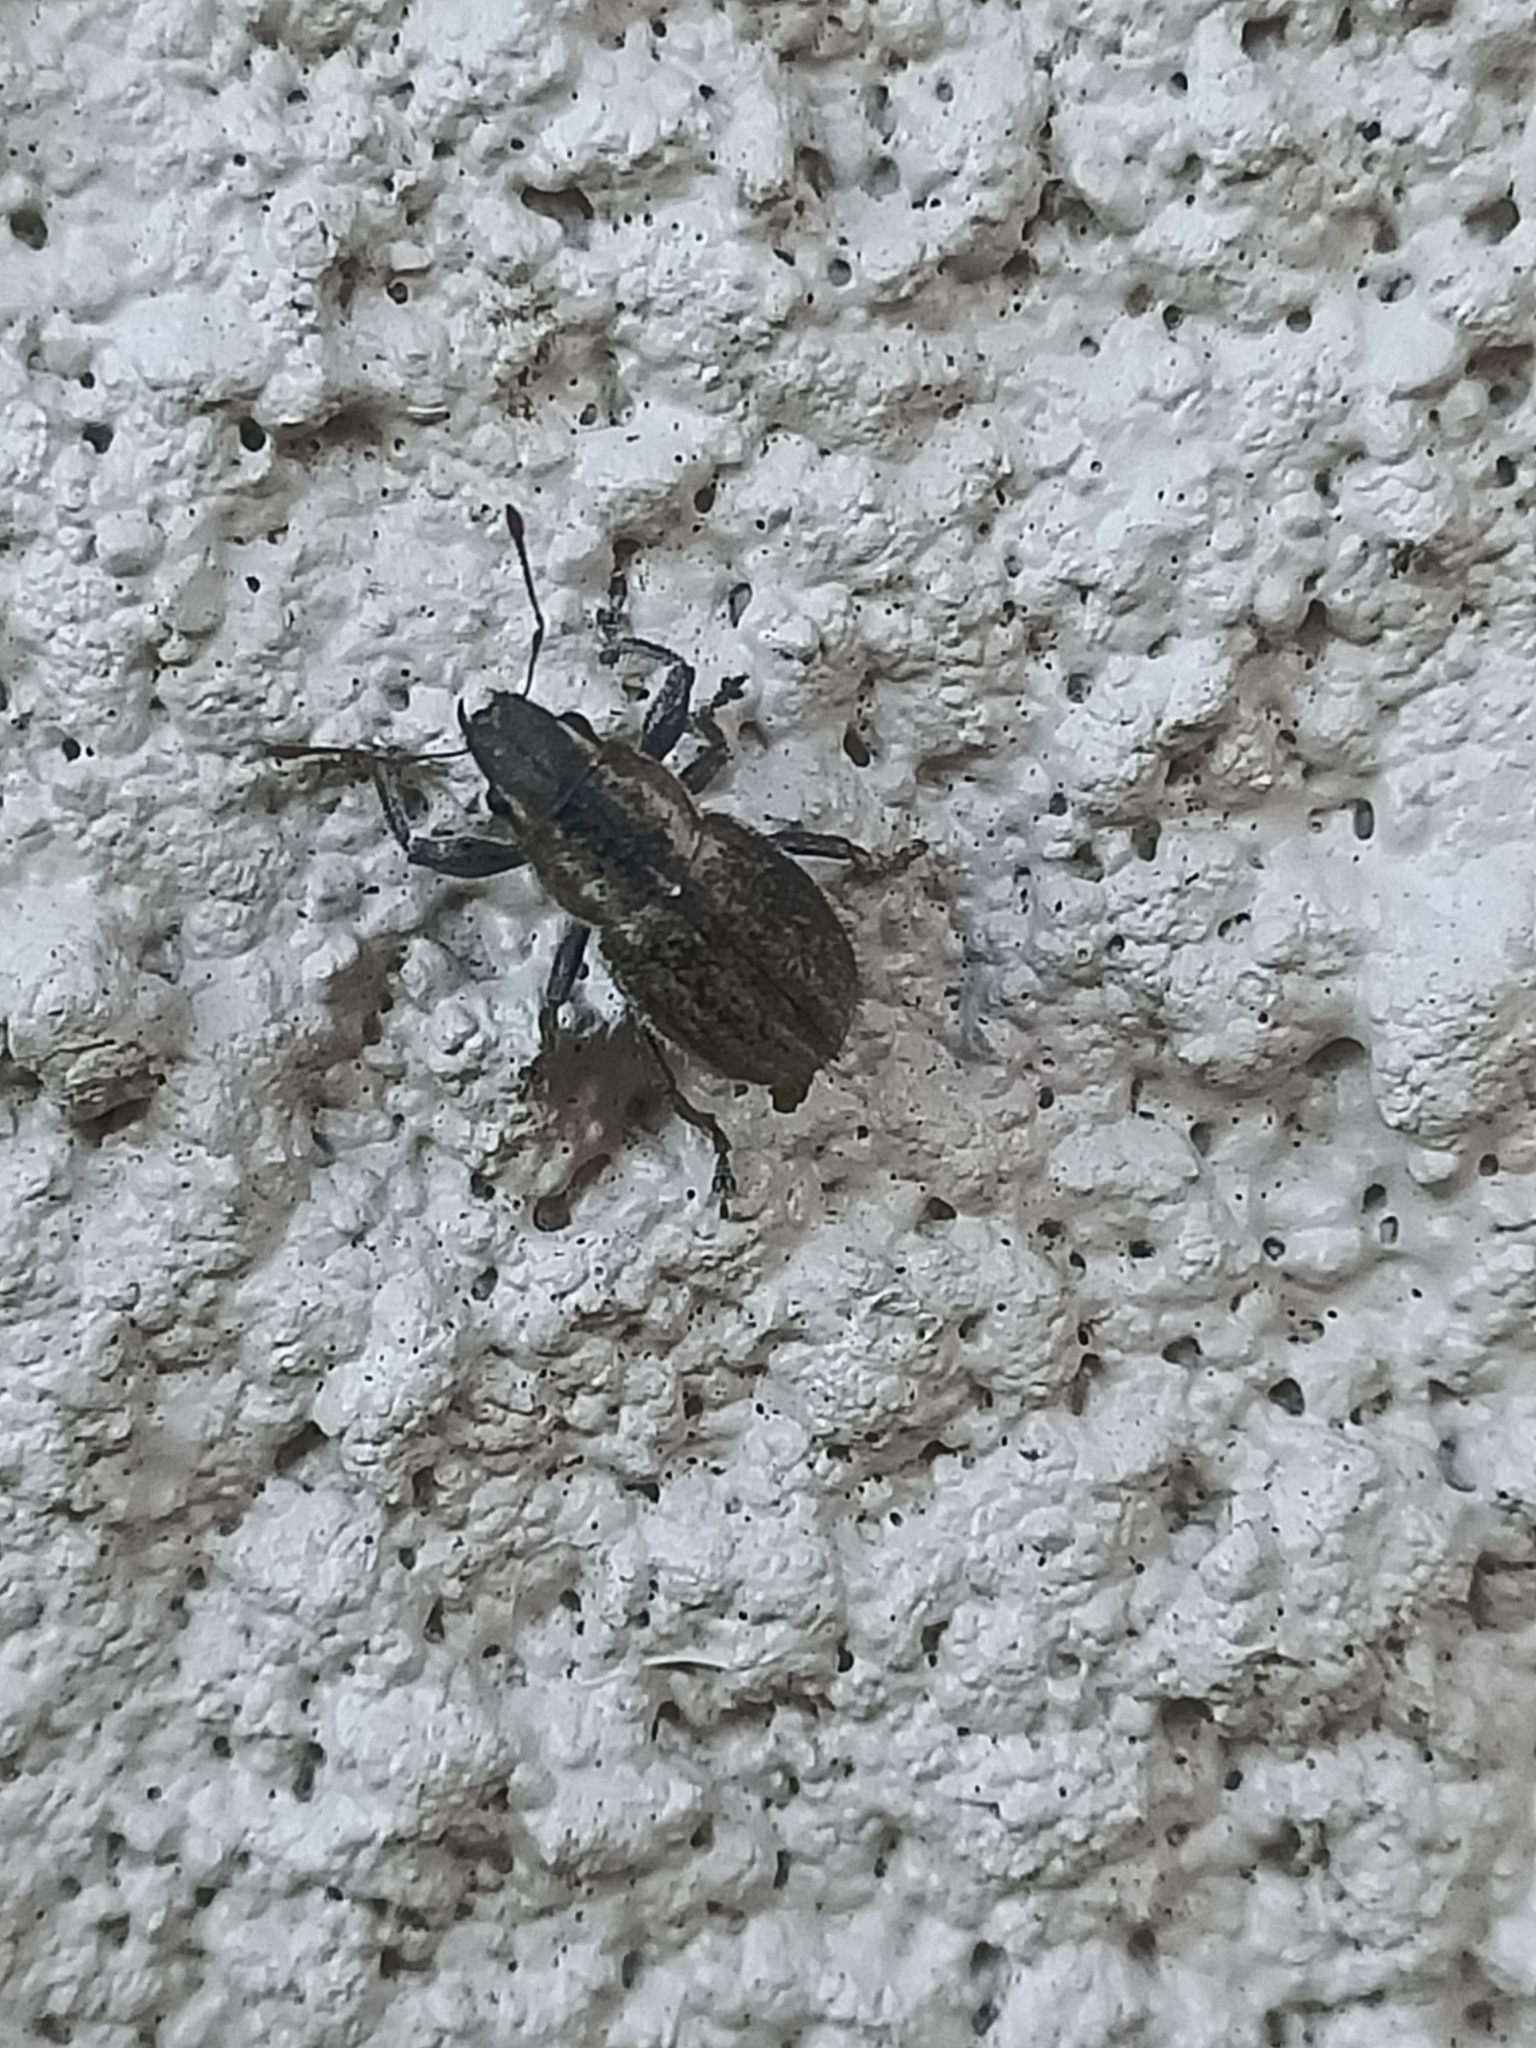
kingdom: Animalia
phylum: Arthropoda
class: Insecta
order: Coleoptera
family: Curculionidae
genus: Naupactus
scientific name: Naupactus peregrinus
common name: Whitefringed beetle
